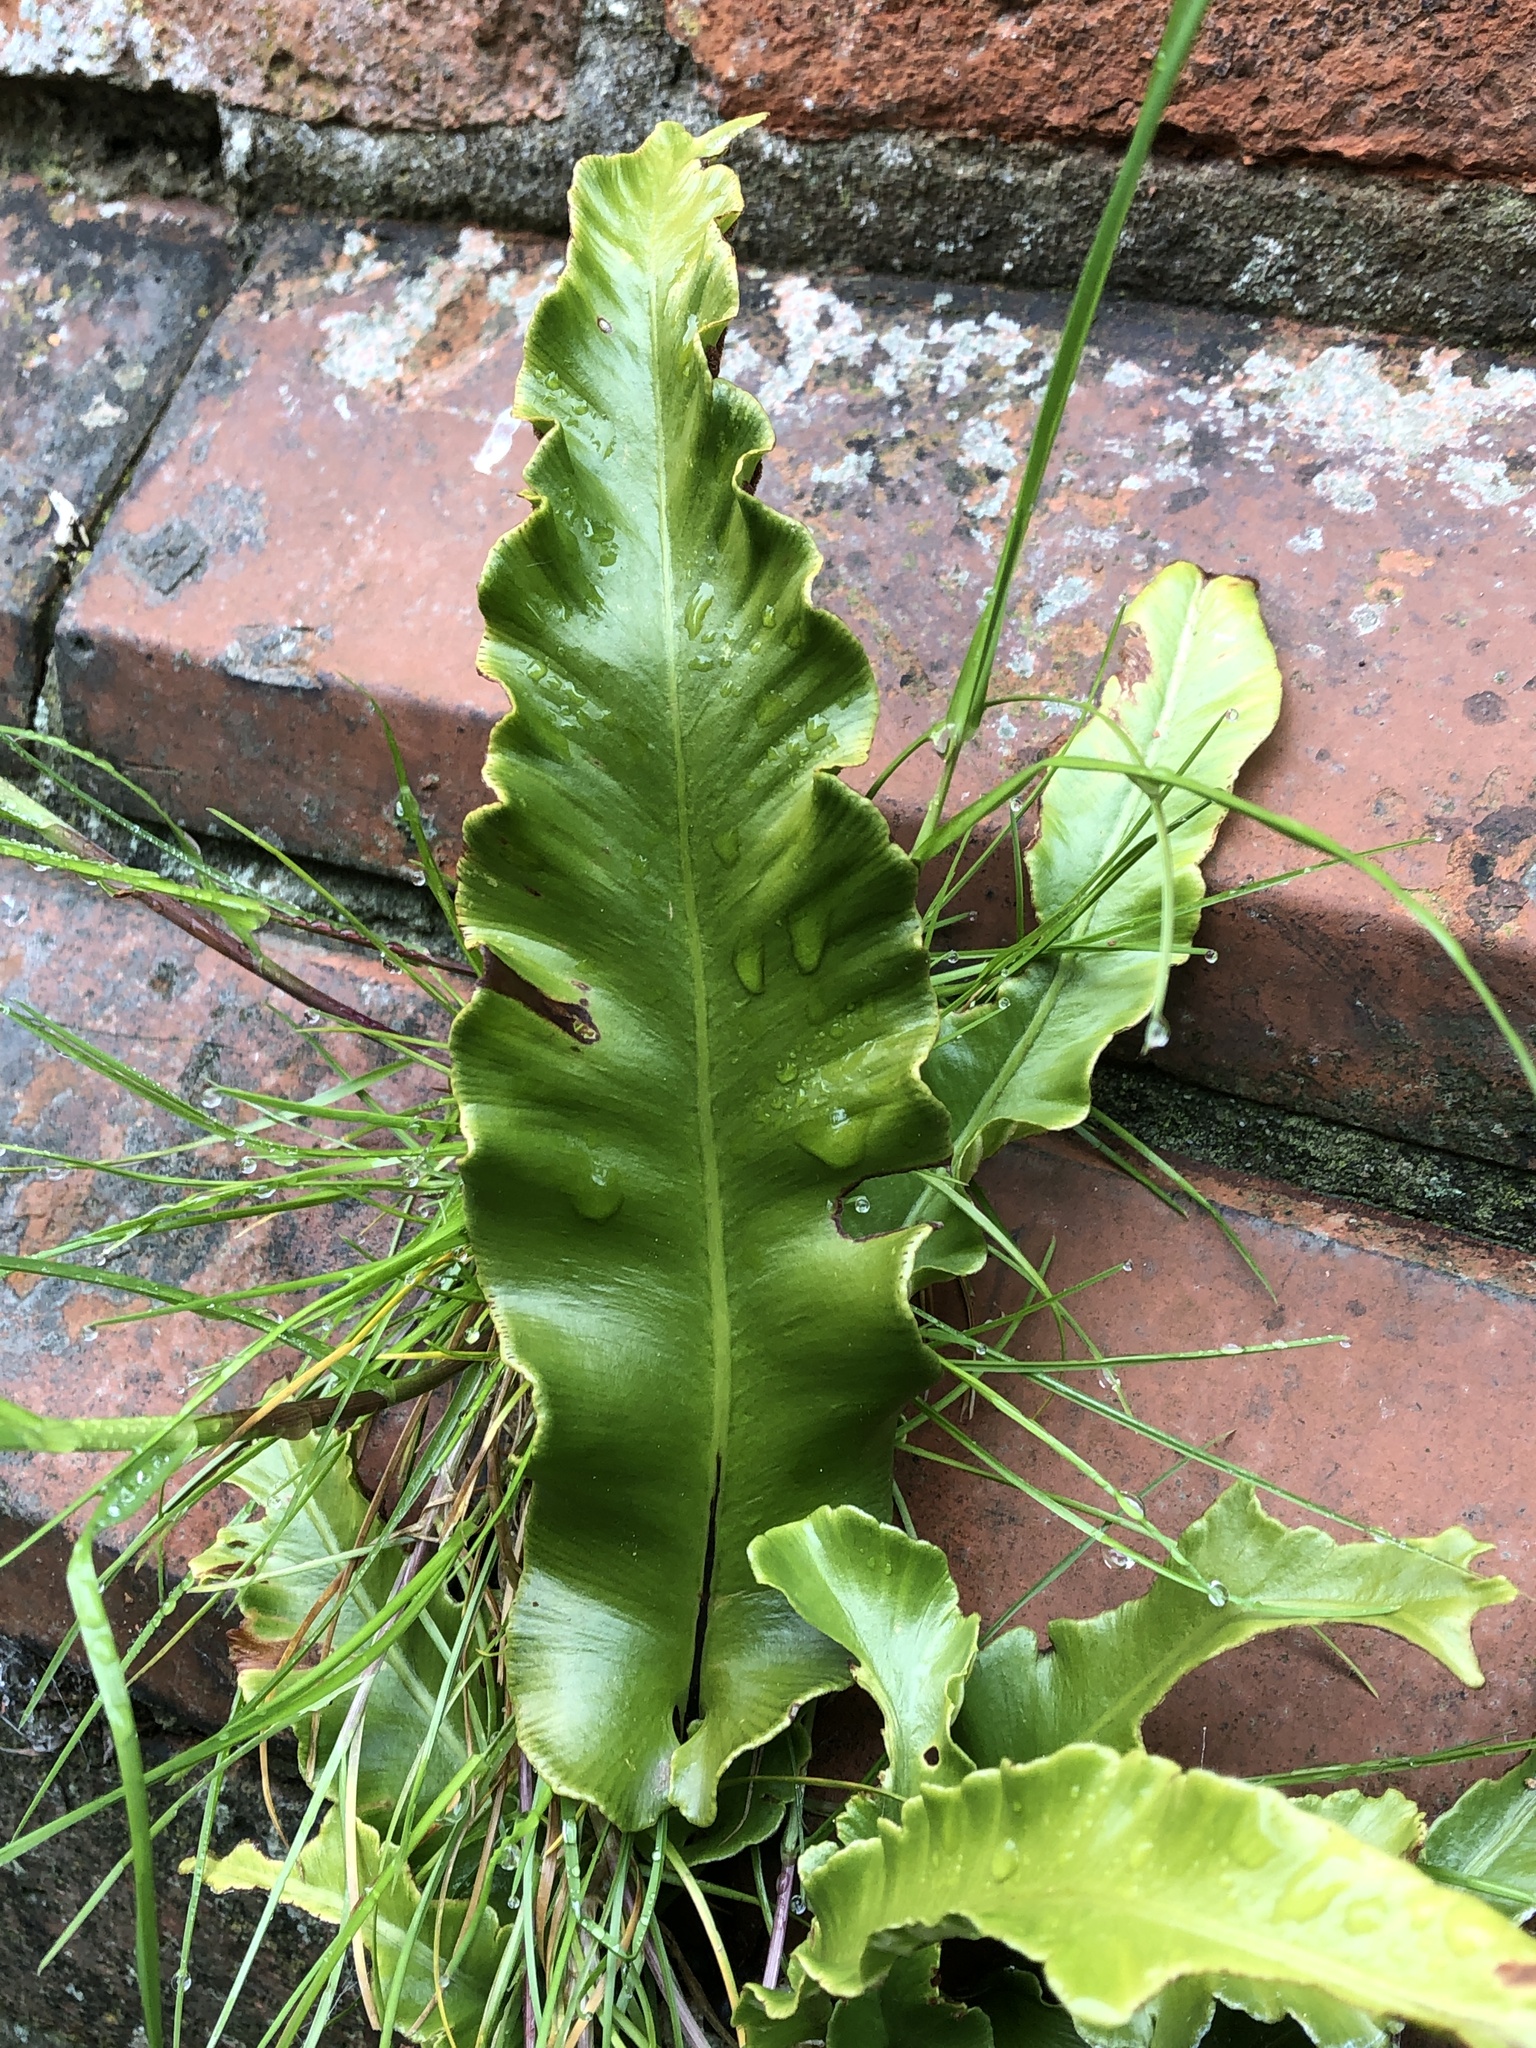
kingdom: Plantae
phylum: Tracheophyta
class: Polypodiopsida
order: Polypodiales
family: Aspleniaceae
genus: Asplenium
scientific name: Asplenium scolopendrium
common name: Hart's-tongue fern
